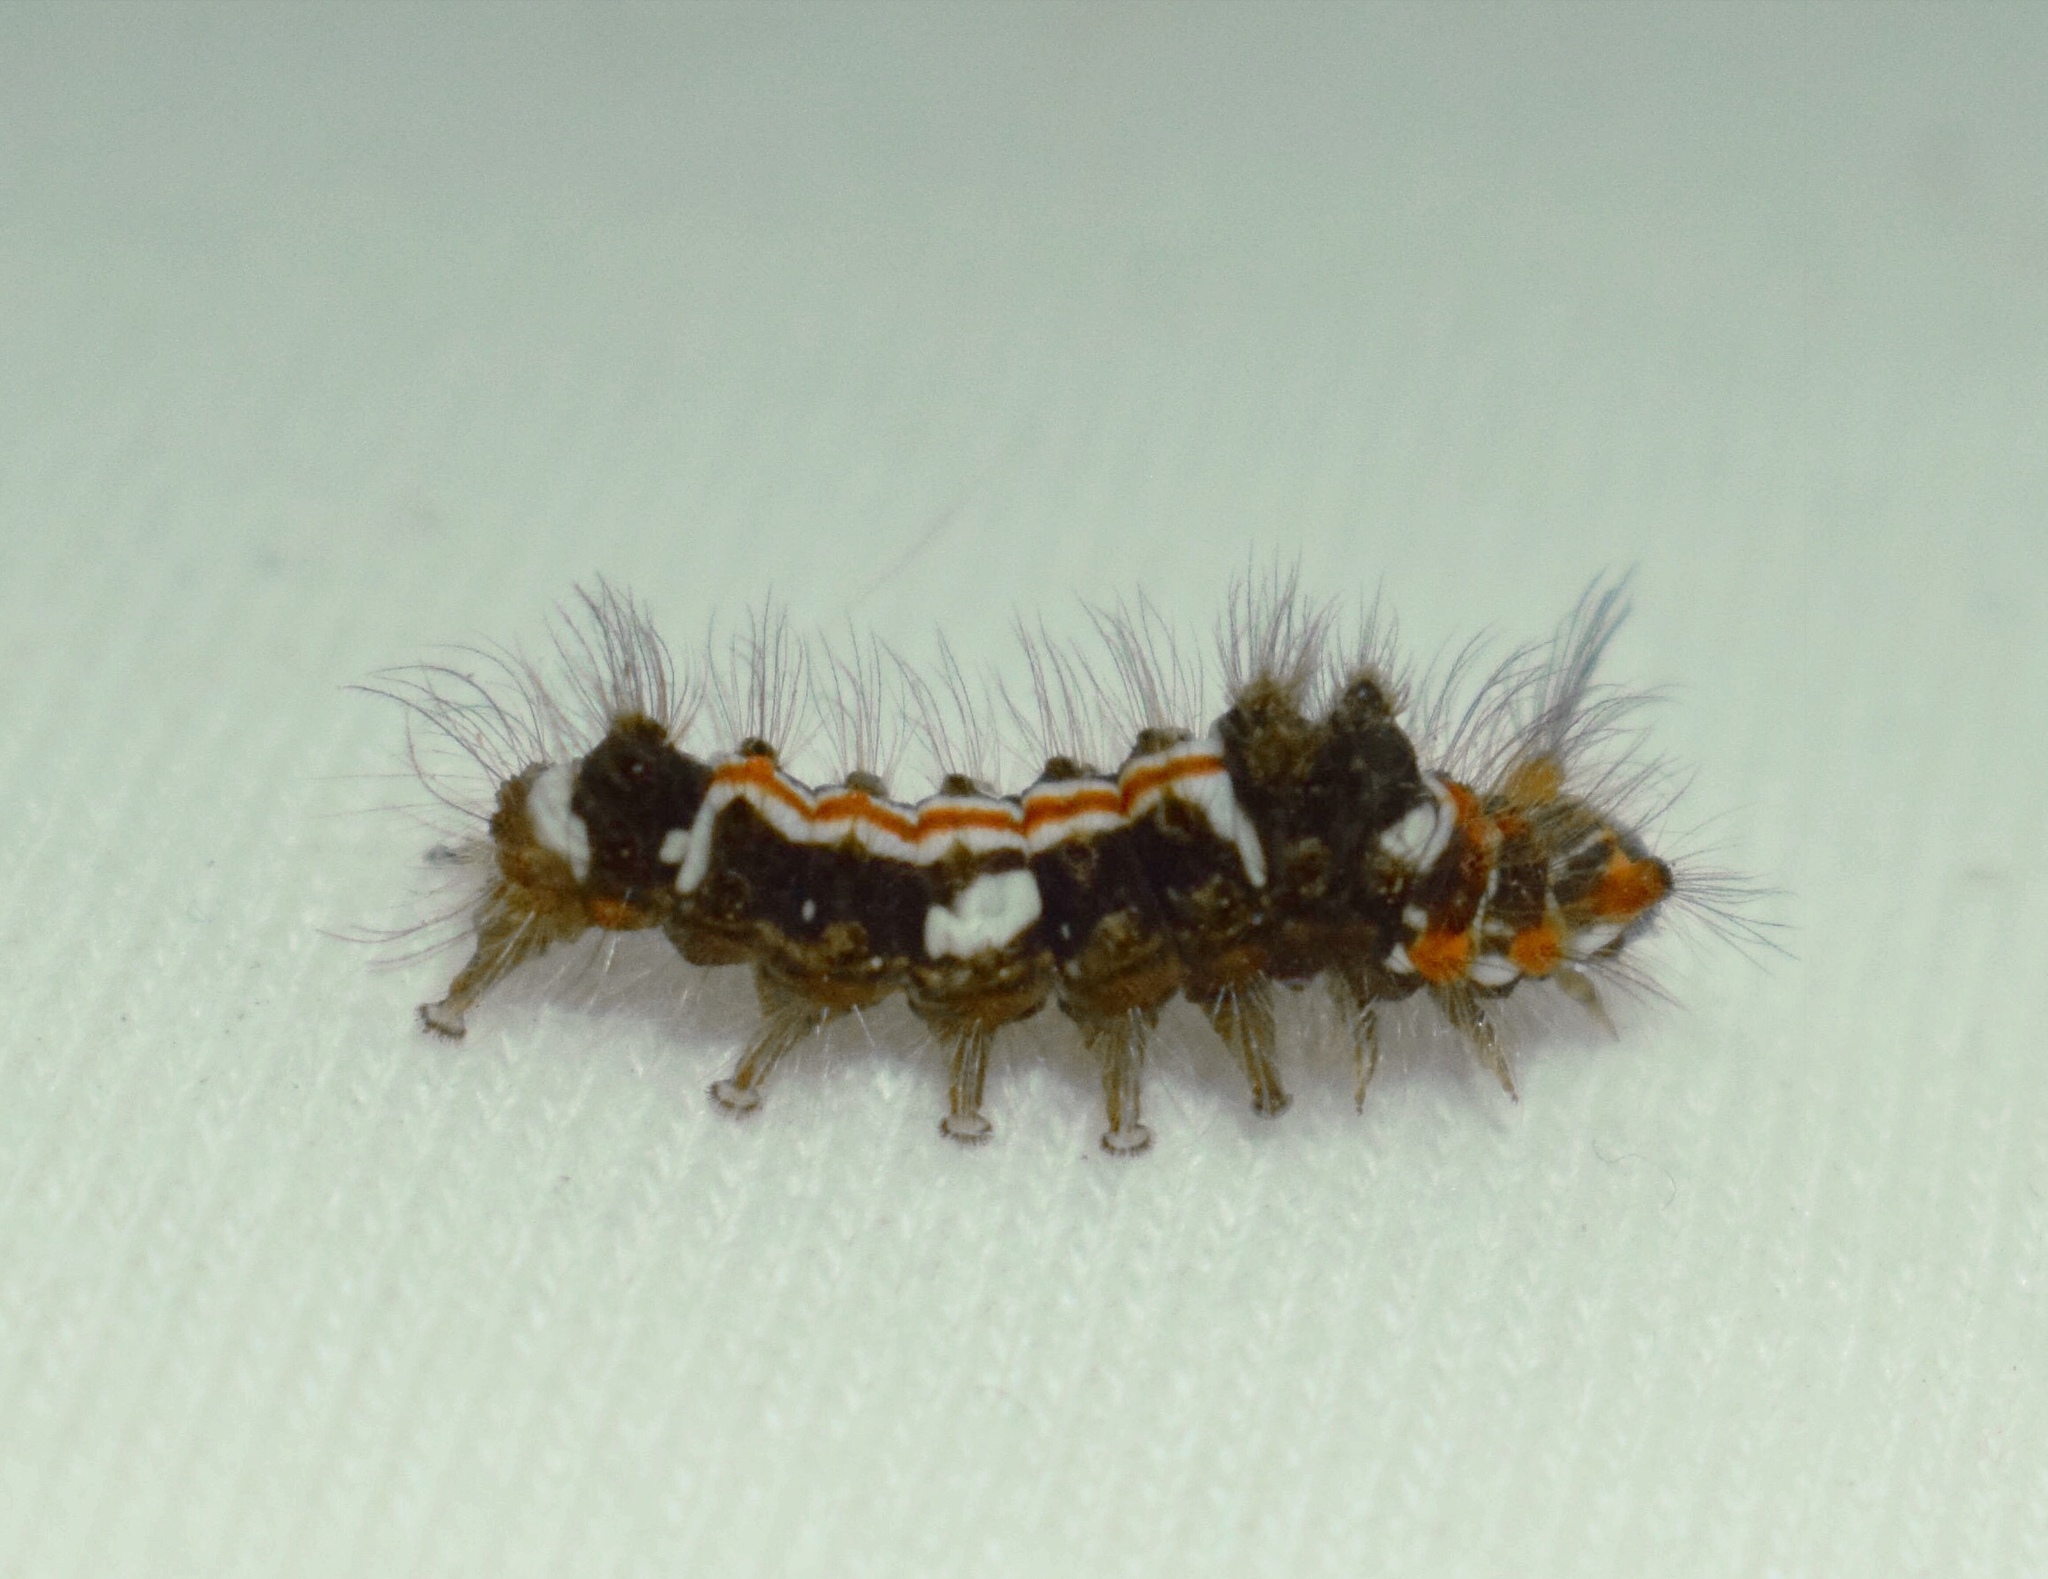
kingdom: Animalia
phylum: Arthropoda
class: Insecta
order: Lepidoptera
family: Erebidae
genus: Euproctis
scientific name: Euproctis aethiopica
